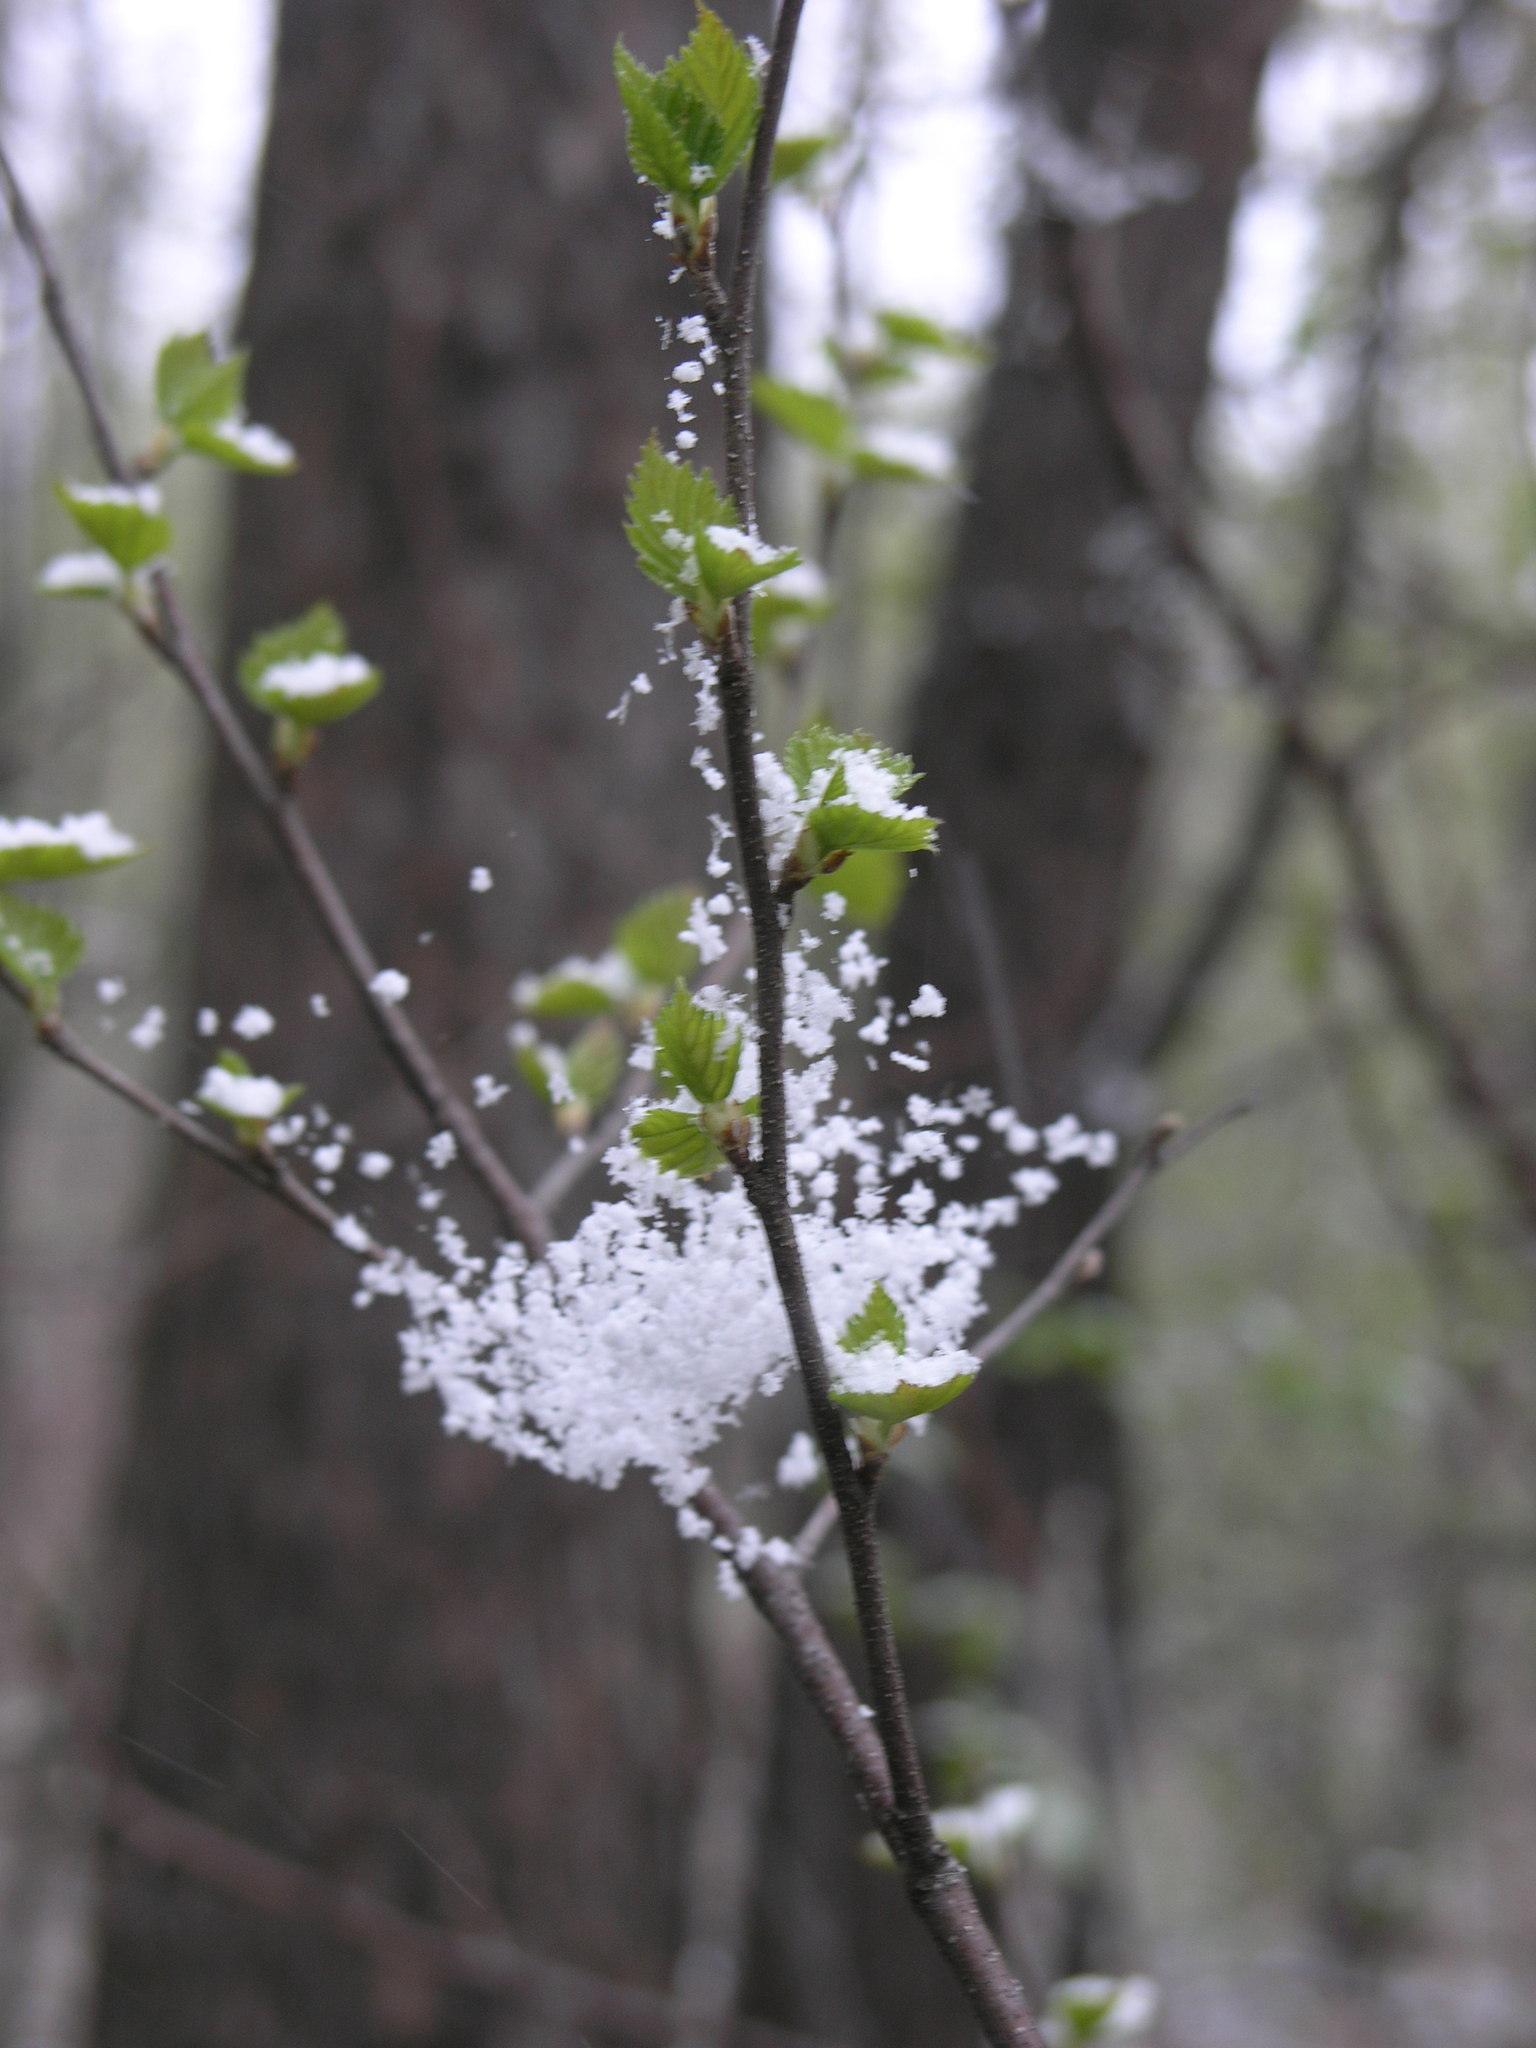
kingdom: Plantae
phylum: Tracheophyta
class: Magnoliopsida
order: Fagales
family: Betulaceae
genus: Betula
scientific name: Betula pendula
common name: Silver birch
